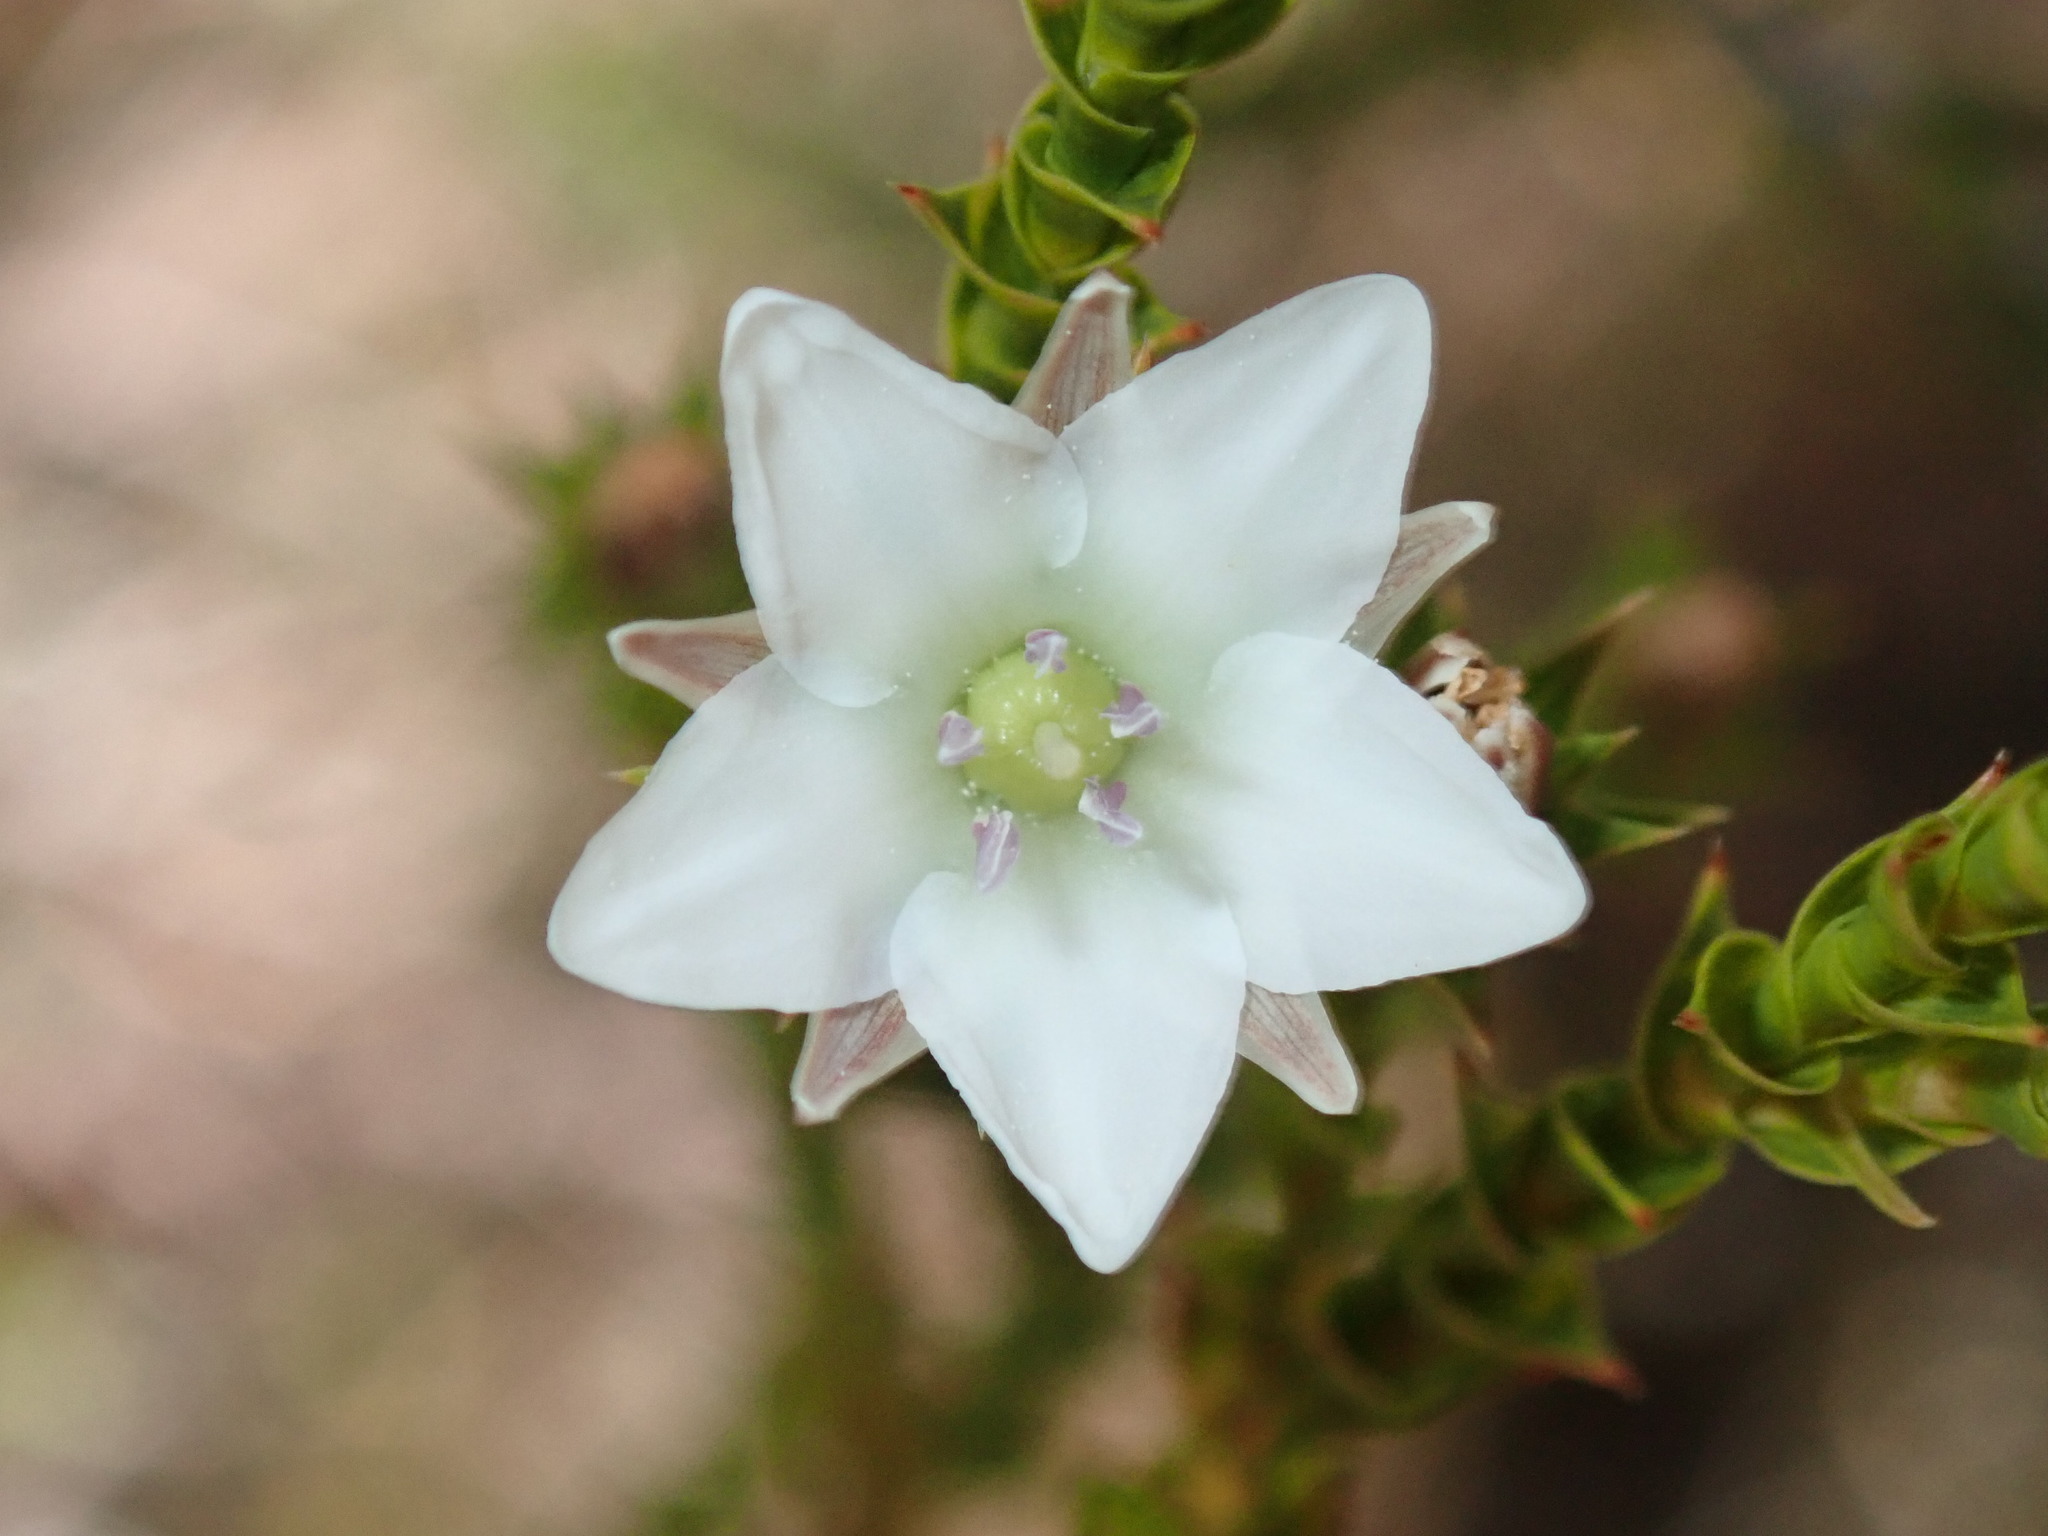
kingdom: Plantae
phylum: Tracheophyta
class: Magnoliopsida
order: Ericales
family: Ericaceae
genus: Sprengelia
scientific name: Sprengelia sprengelioides
